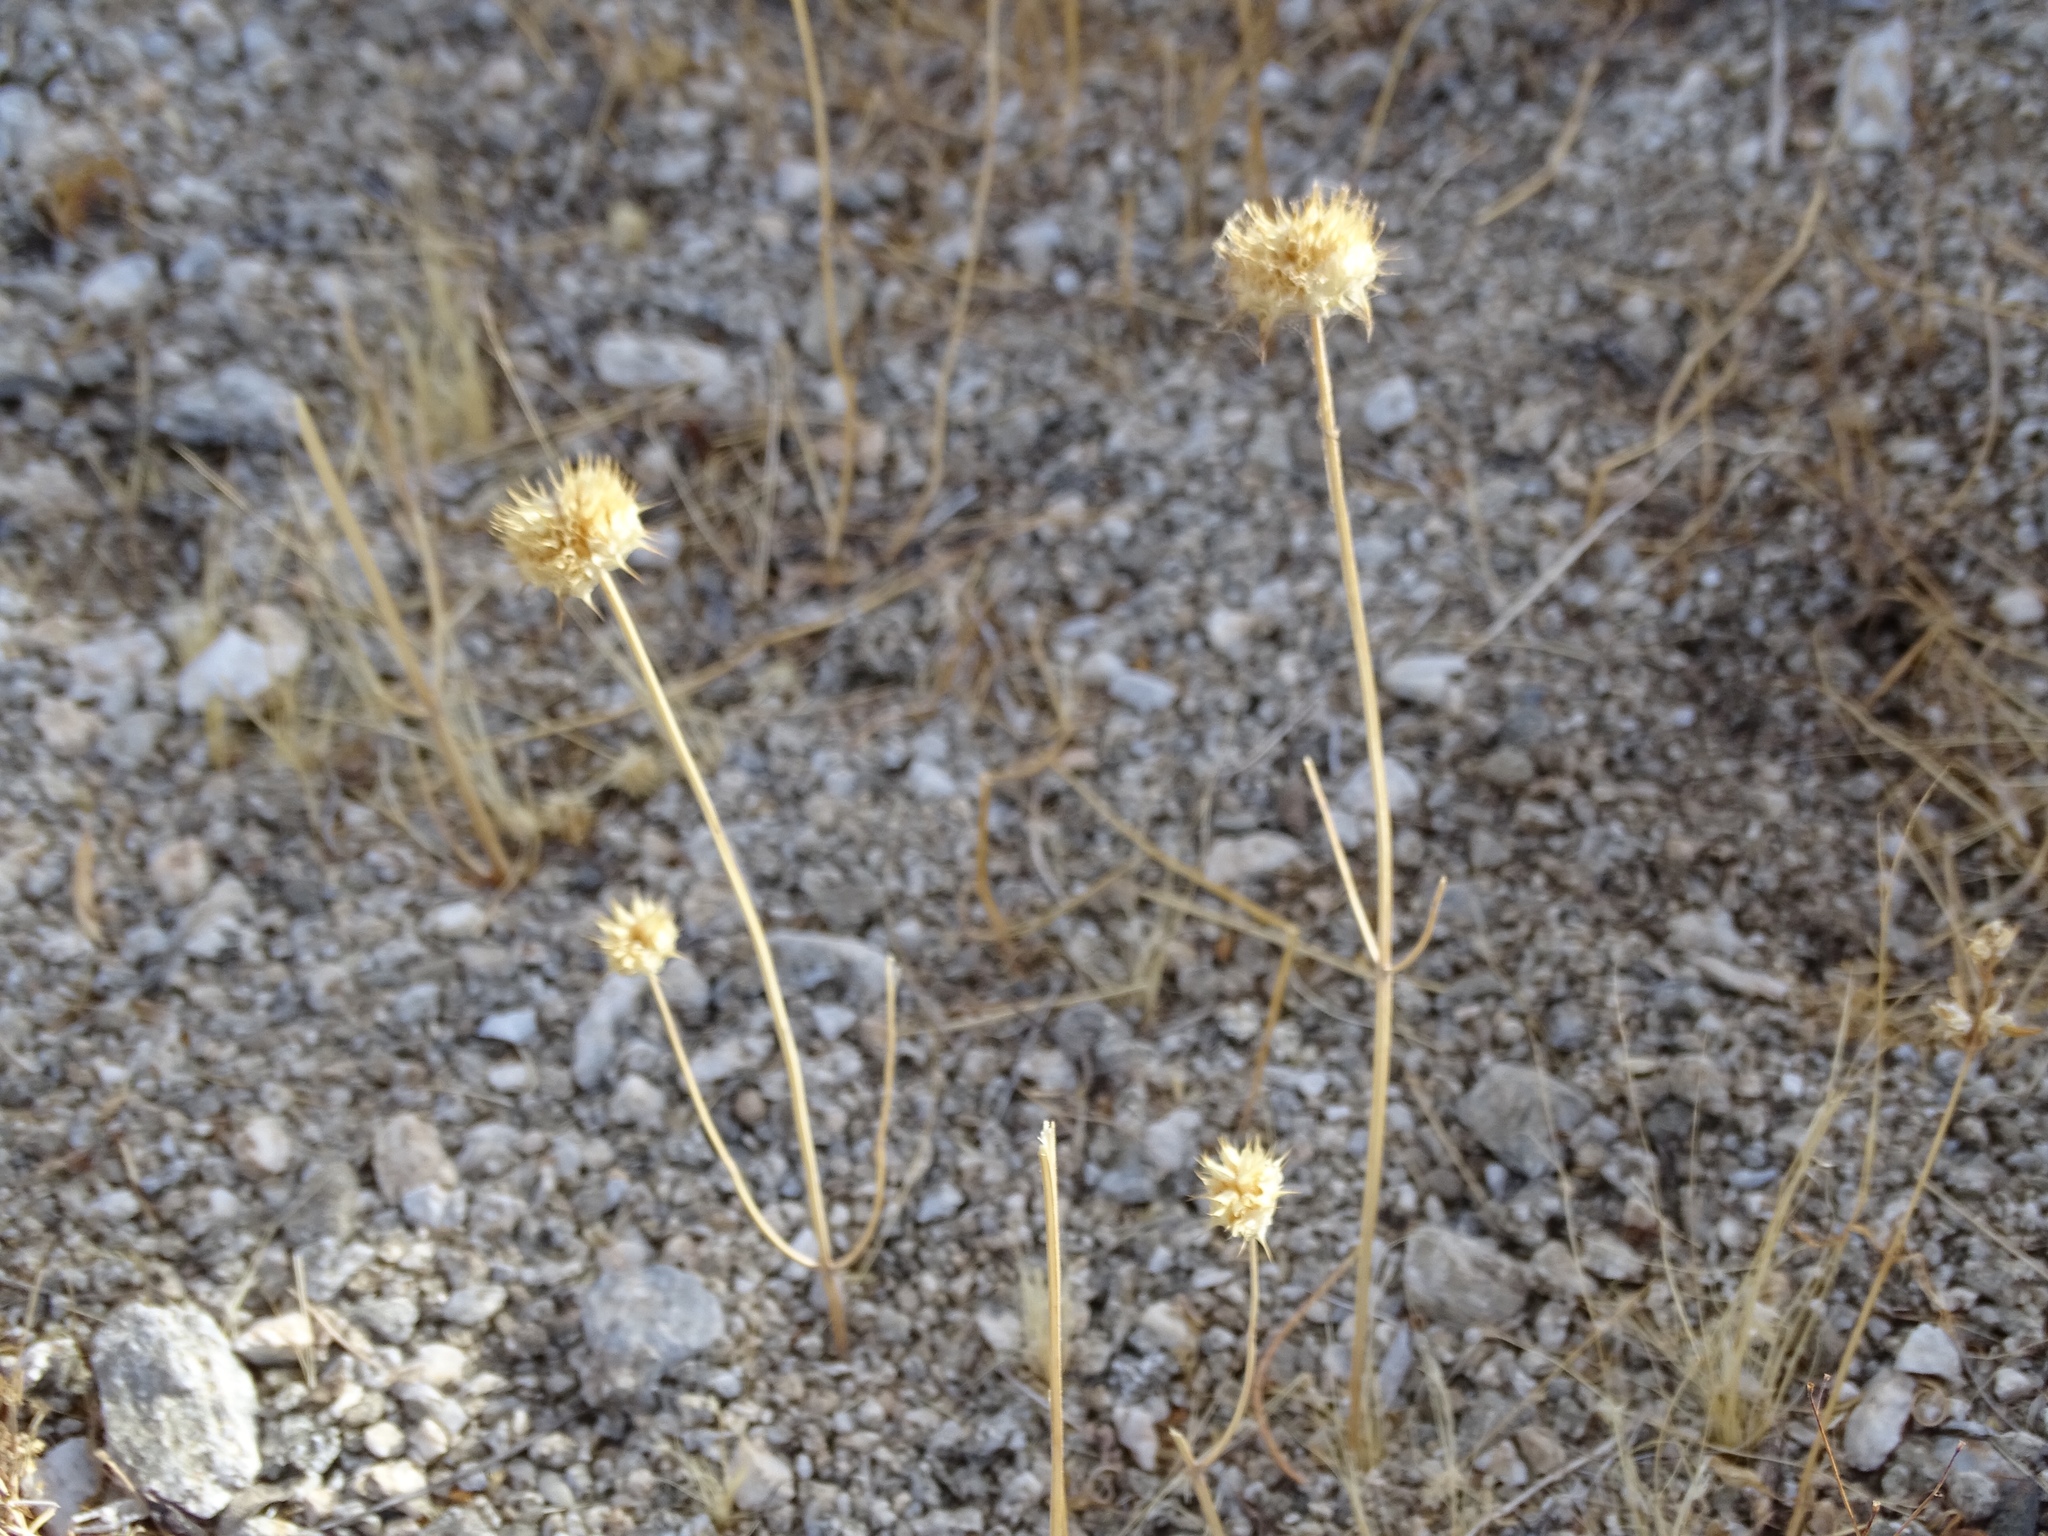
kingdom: Plantae
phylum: Tracheophyta
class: Magnoliopsida
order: Lamiales
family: Lamiaceae
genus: Salvia
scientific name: Salvia columbariae
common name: Chia
